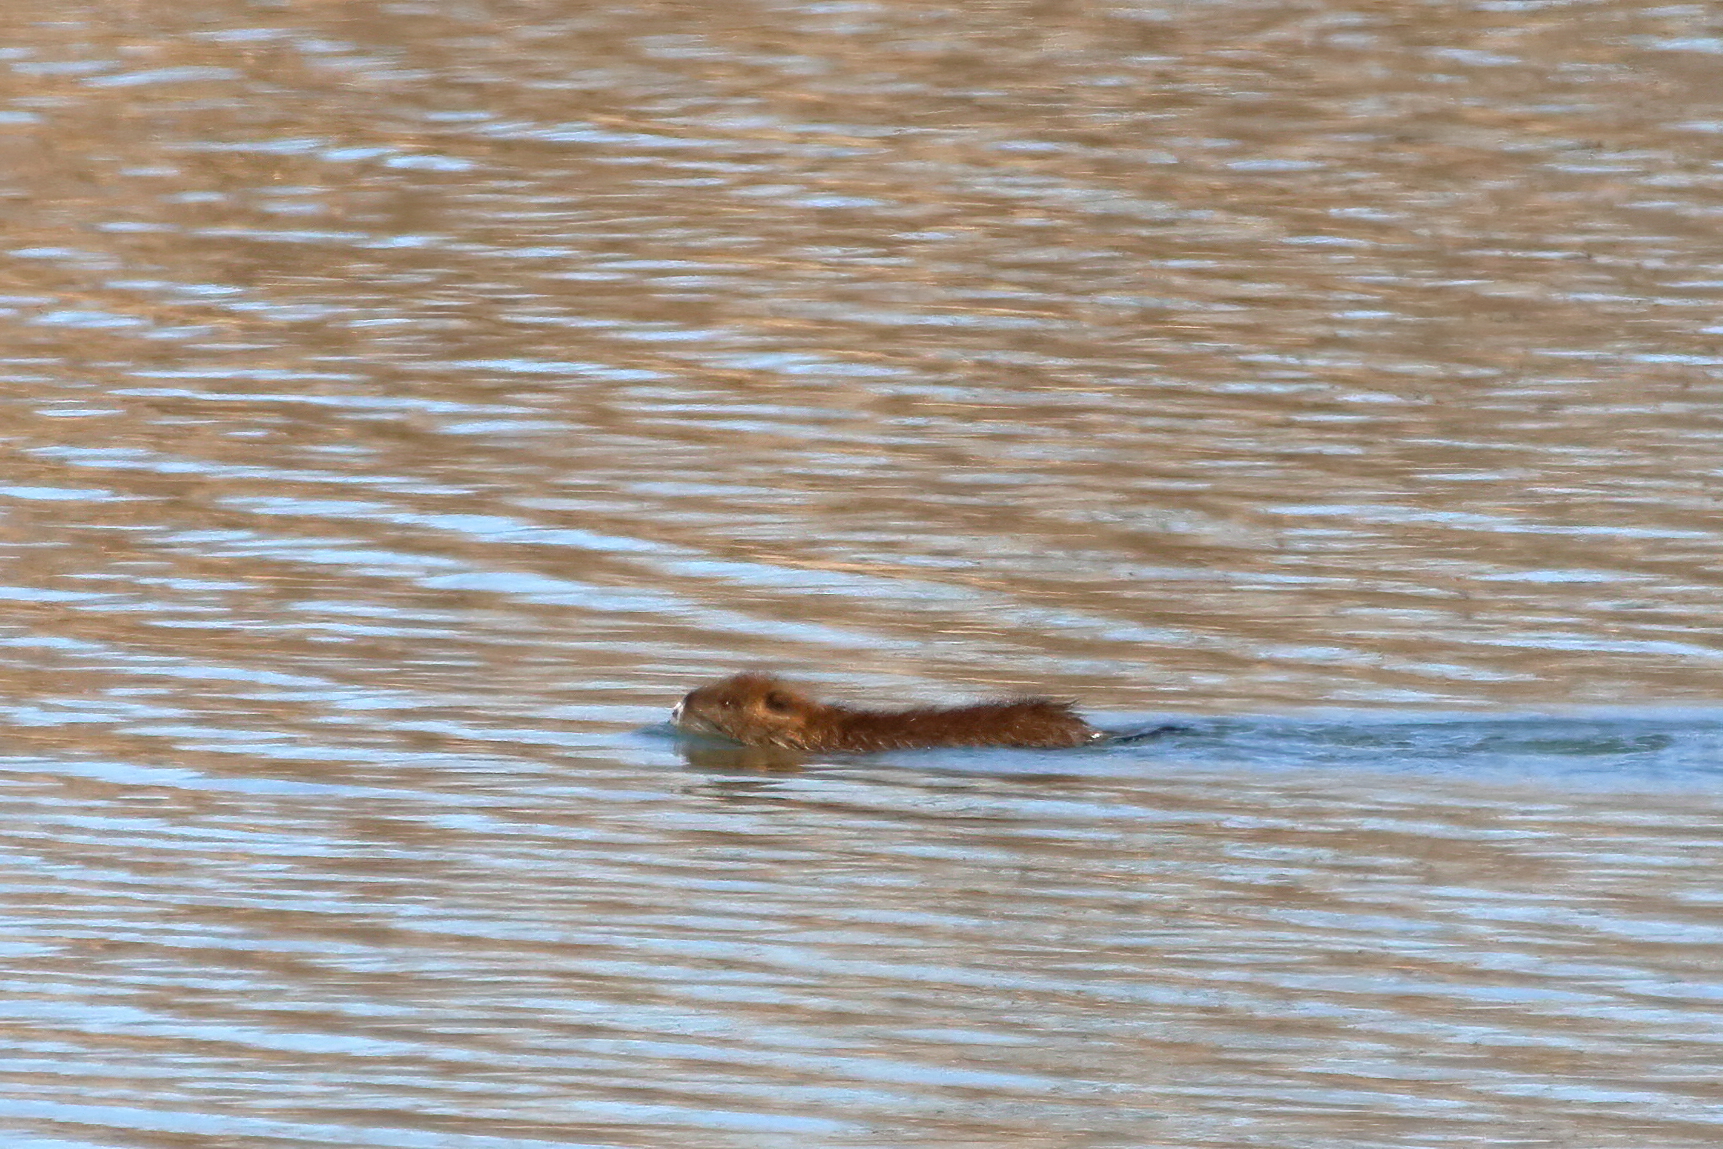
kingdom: Animalia
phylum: Chordata
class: Mammalia
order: Rodentia
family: Myocastoridae
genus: Myocastor
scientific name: Myocastor coypus
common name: Coypu
